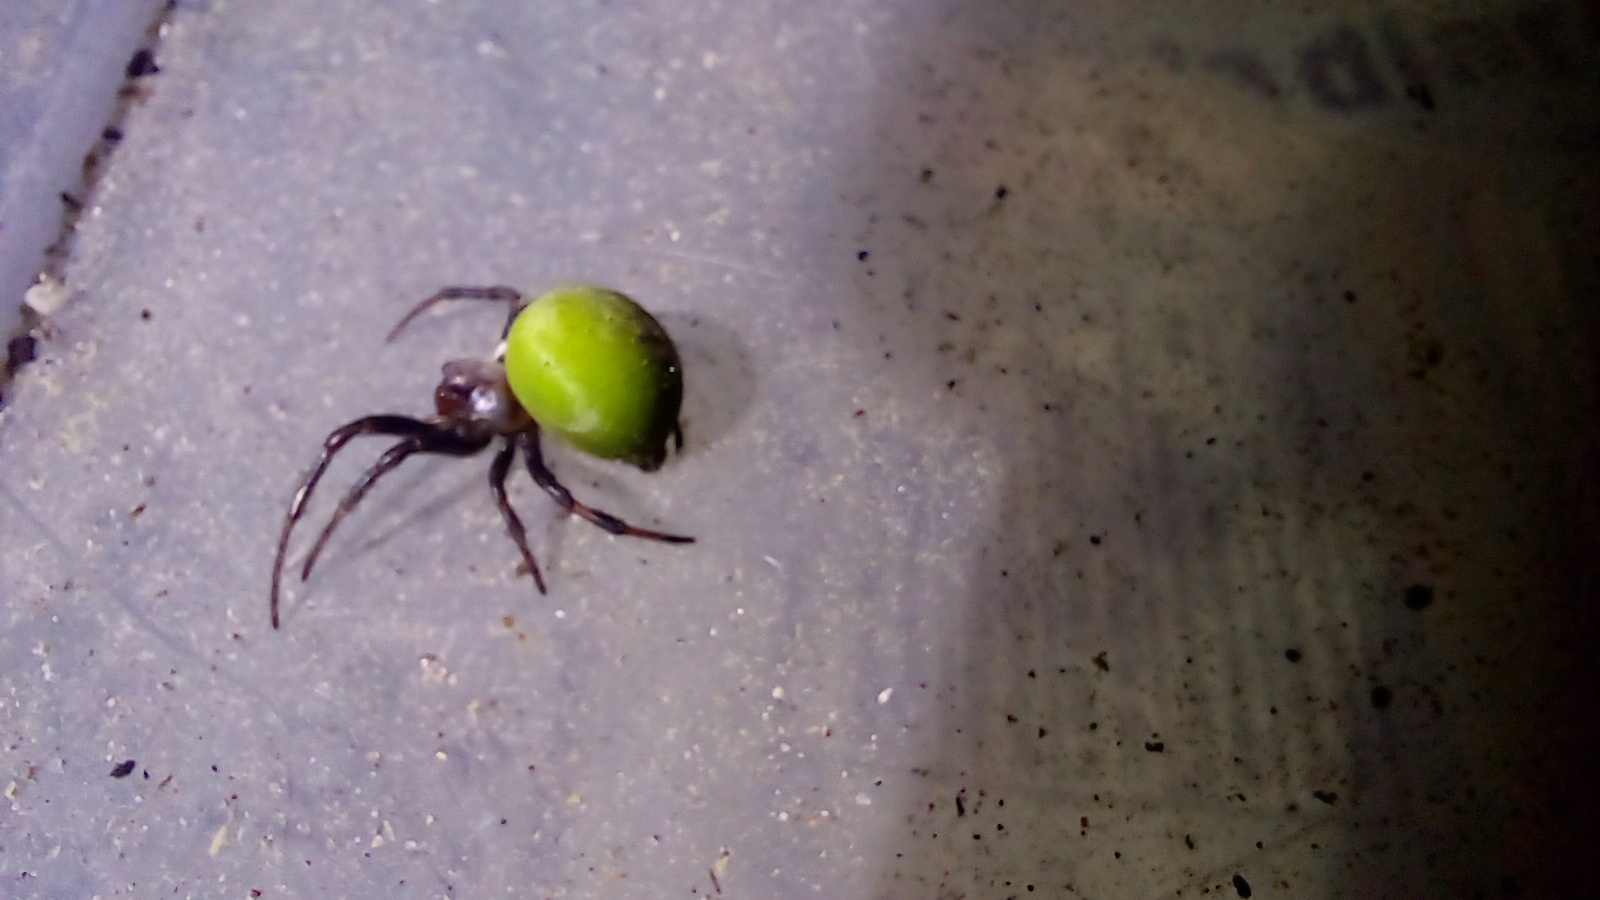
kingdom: Animalia
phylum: Arthropoda
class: Arachnida
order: Araneae
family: Araneidae
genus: Araneus
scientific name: Araneus lathyrinus
